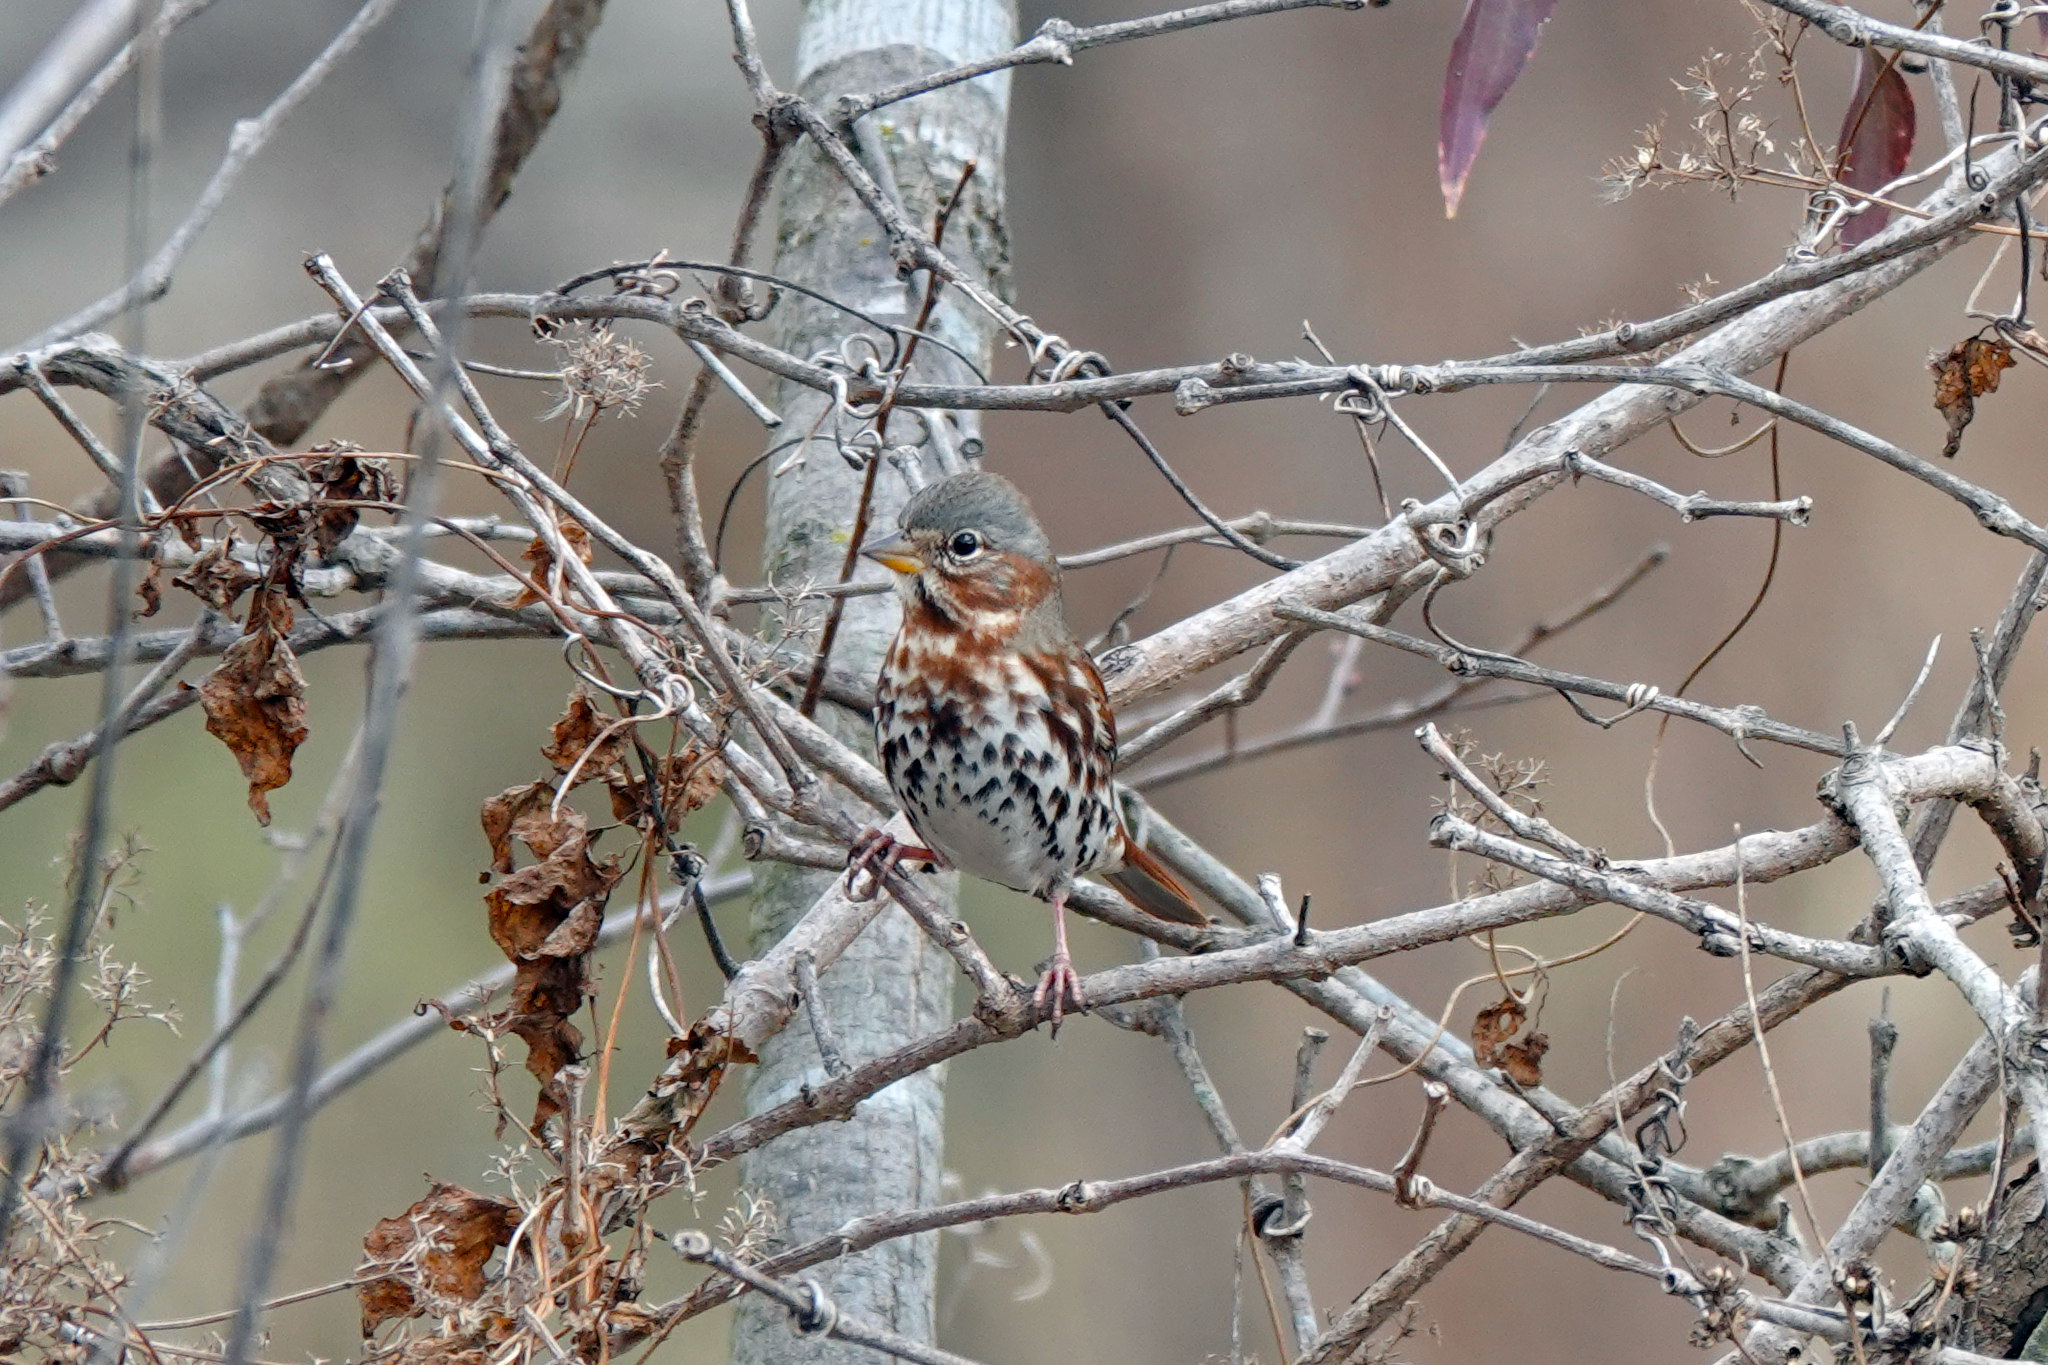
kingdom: Animalia
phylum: Chordata
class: Aves
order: Passeriformes
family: Passerellidae
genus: Passerella
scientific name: Passerella iliaca
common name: Fox sparrow
